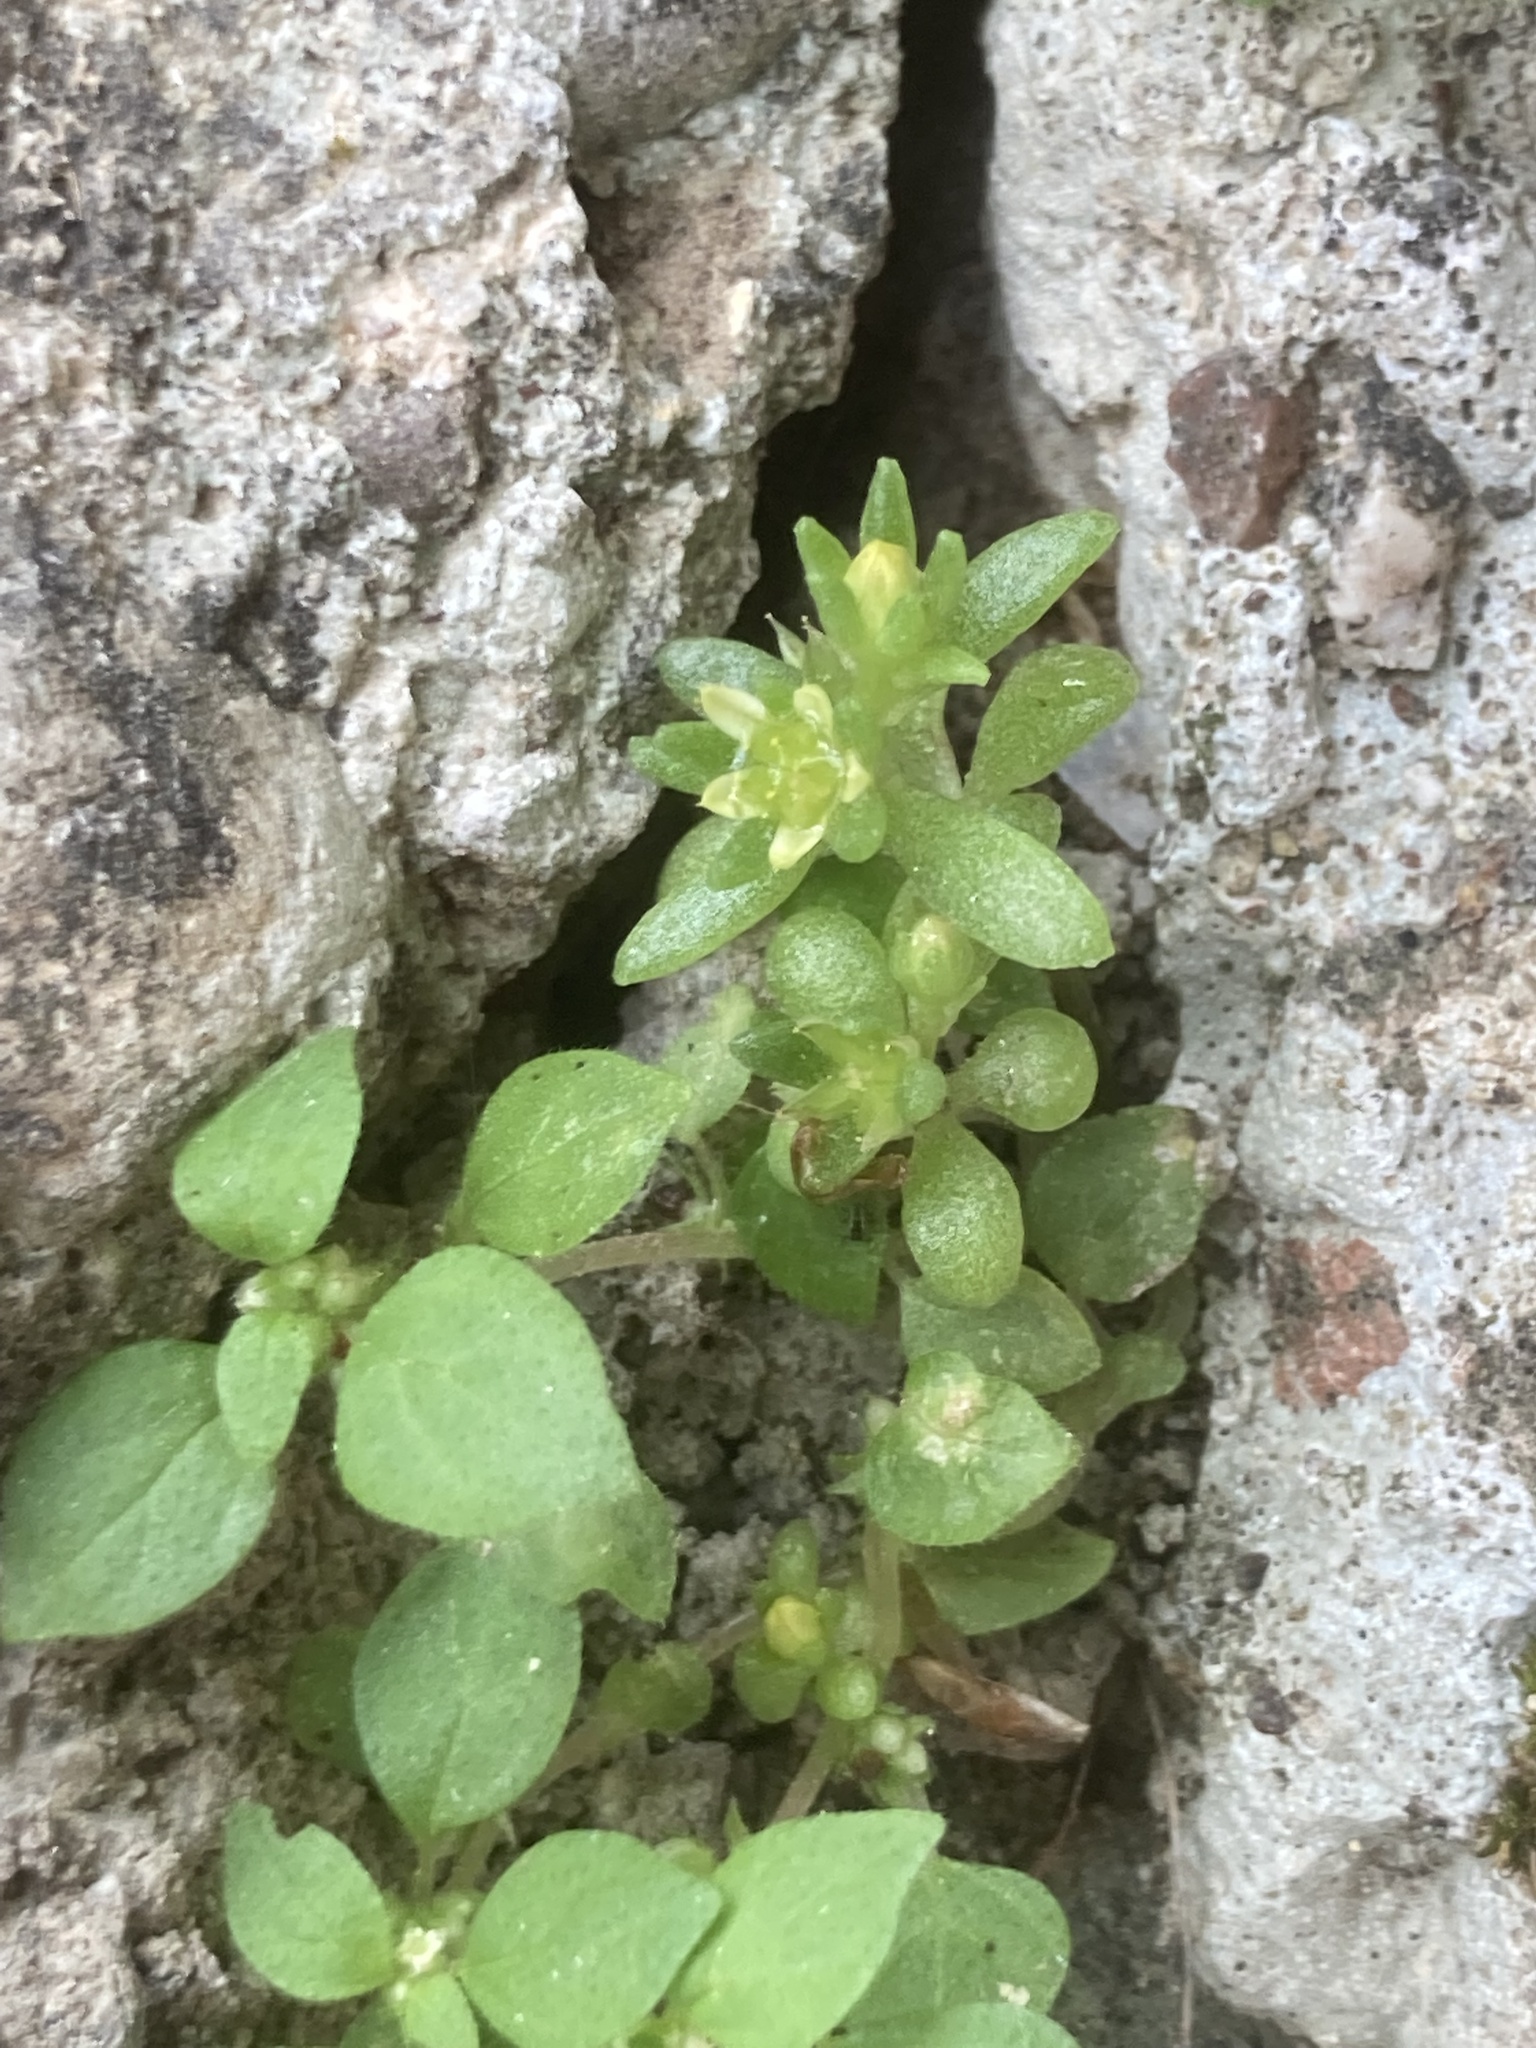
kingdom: Plantae
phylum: Tracheophyta
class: Magnoliopsida
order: Saxifragales
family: Crassulaceae
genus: Sedum
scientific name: Sedum litoreum
